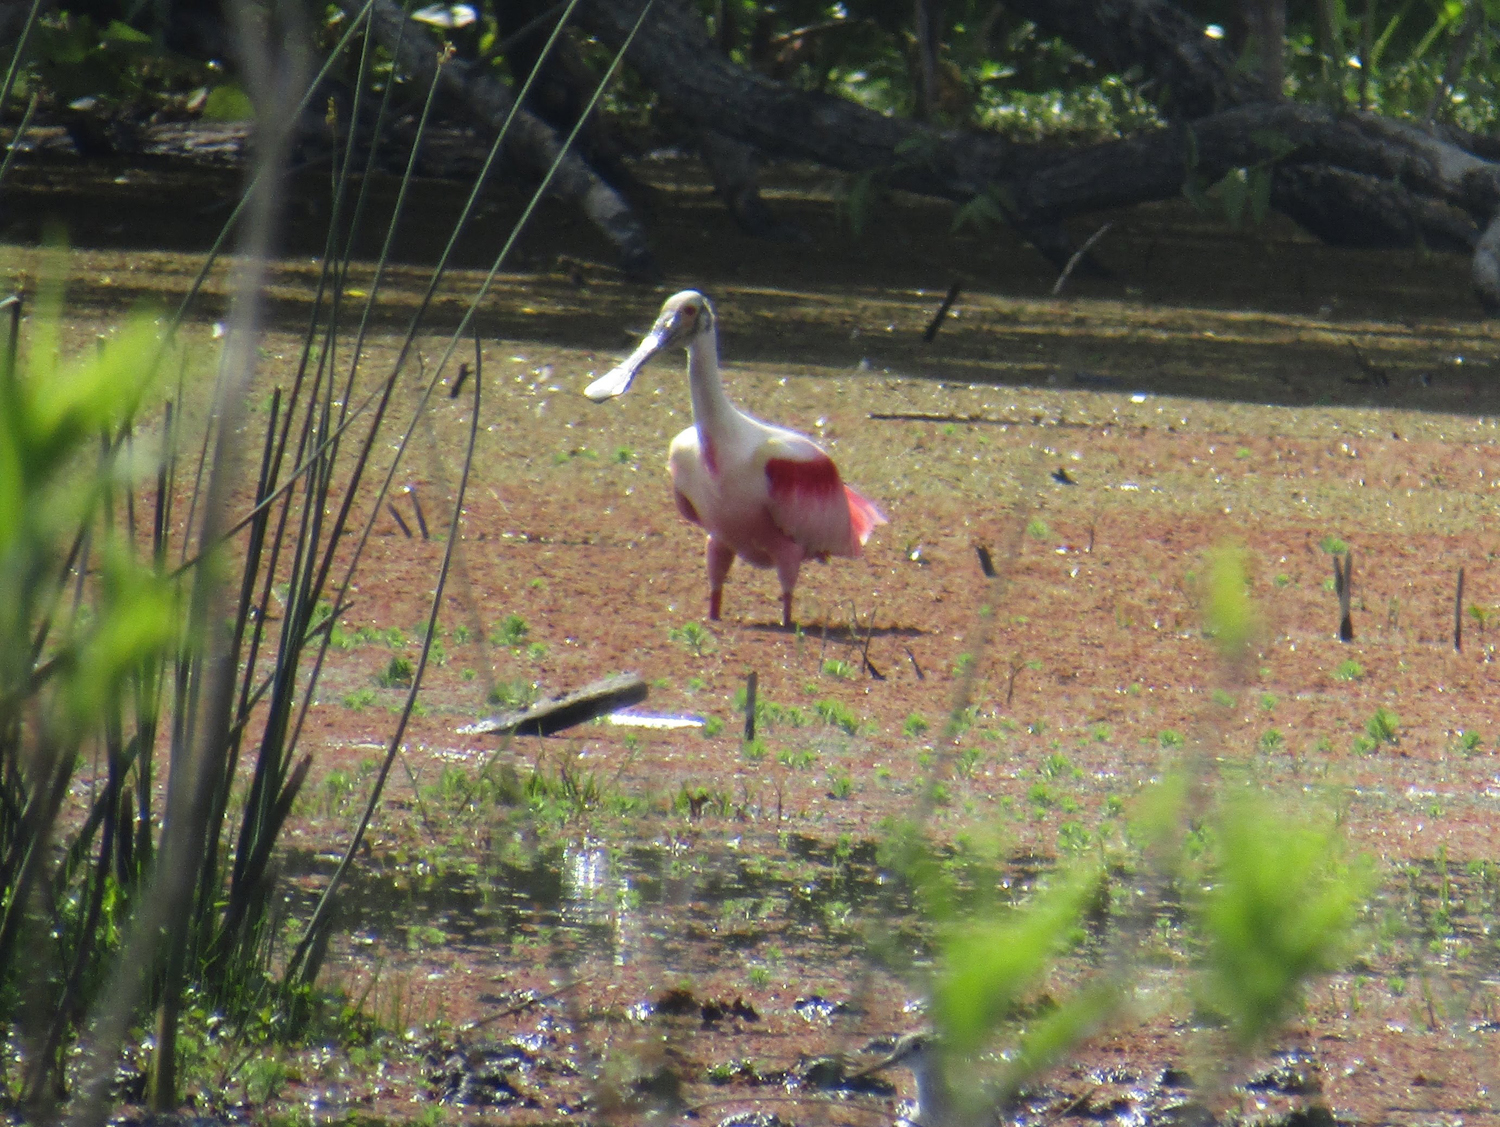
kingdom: Animalia
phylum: Chordata
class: Aves
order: Pelecaniformes
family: Threskiornithidae
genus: Platalea
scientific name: Platalea ajaja
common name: Roseate spoonbill
